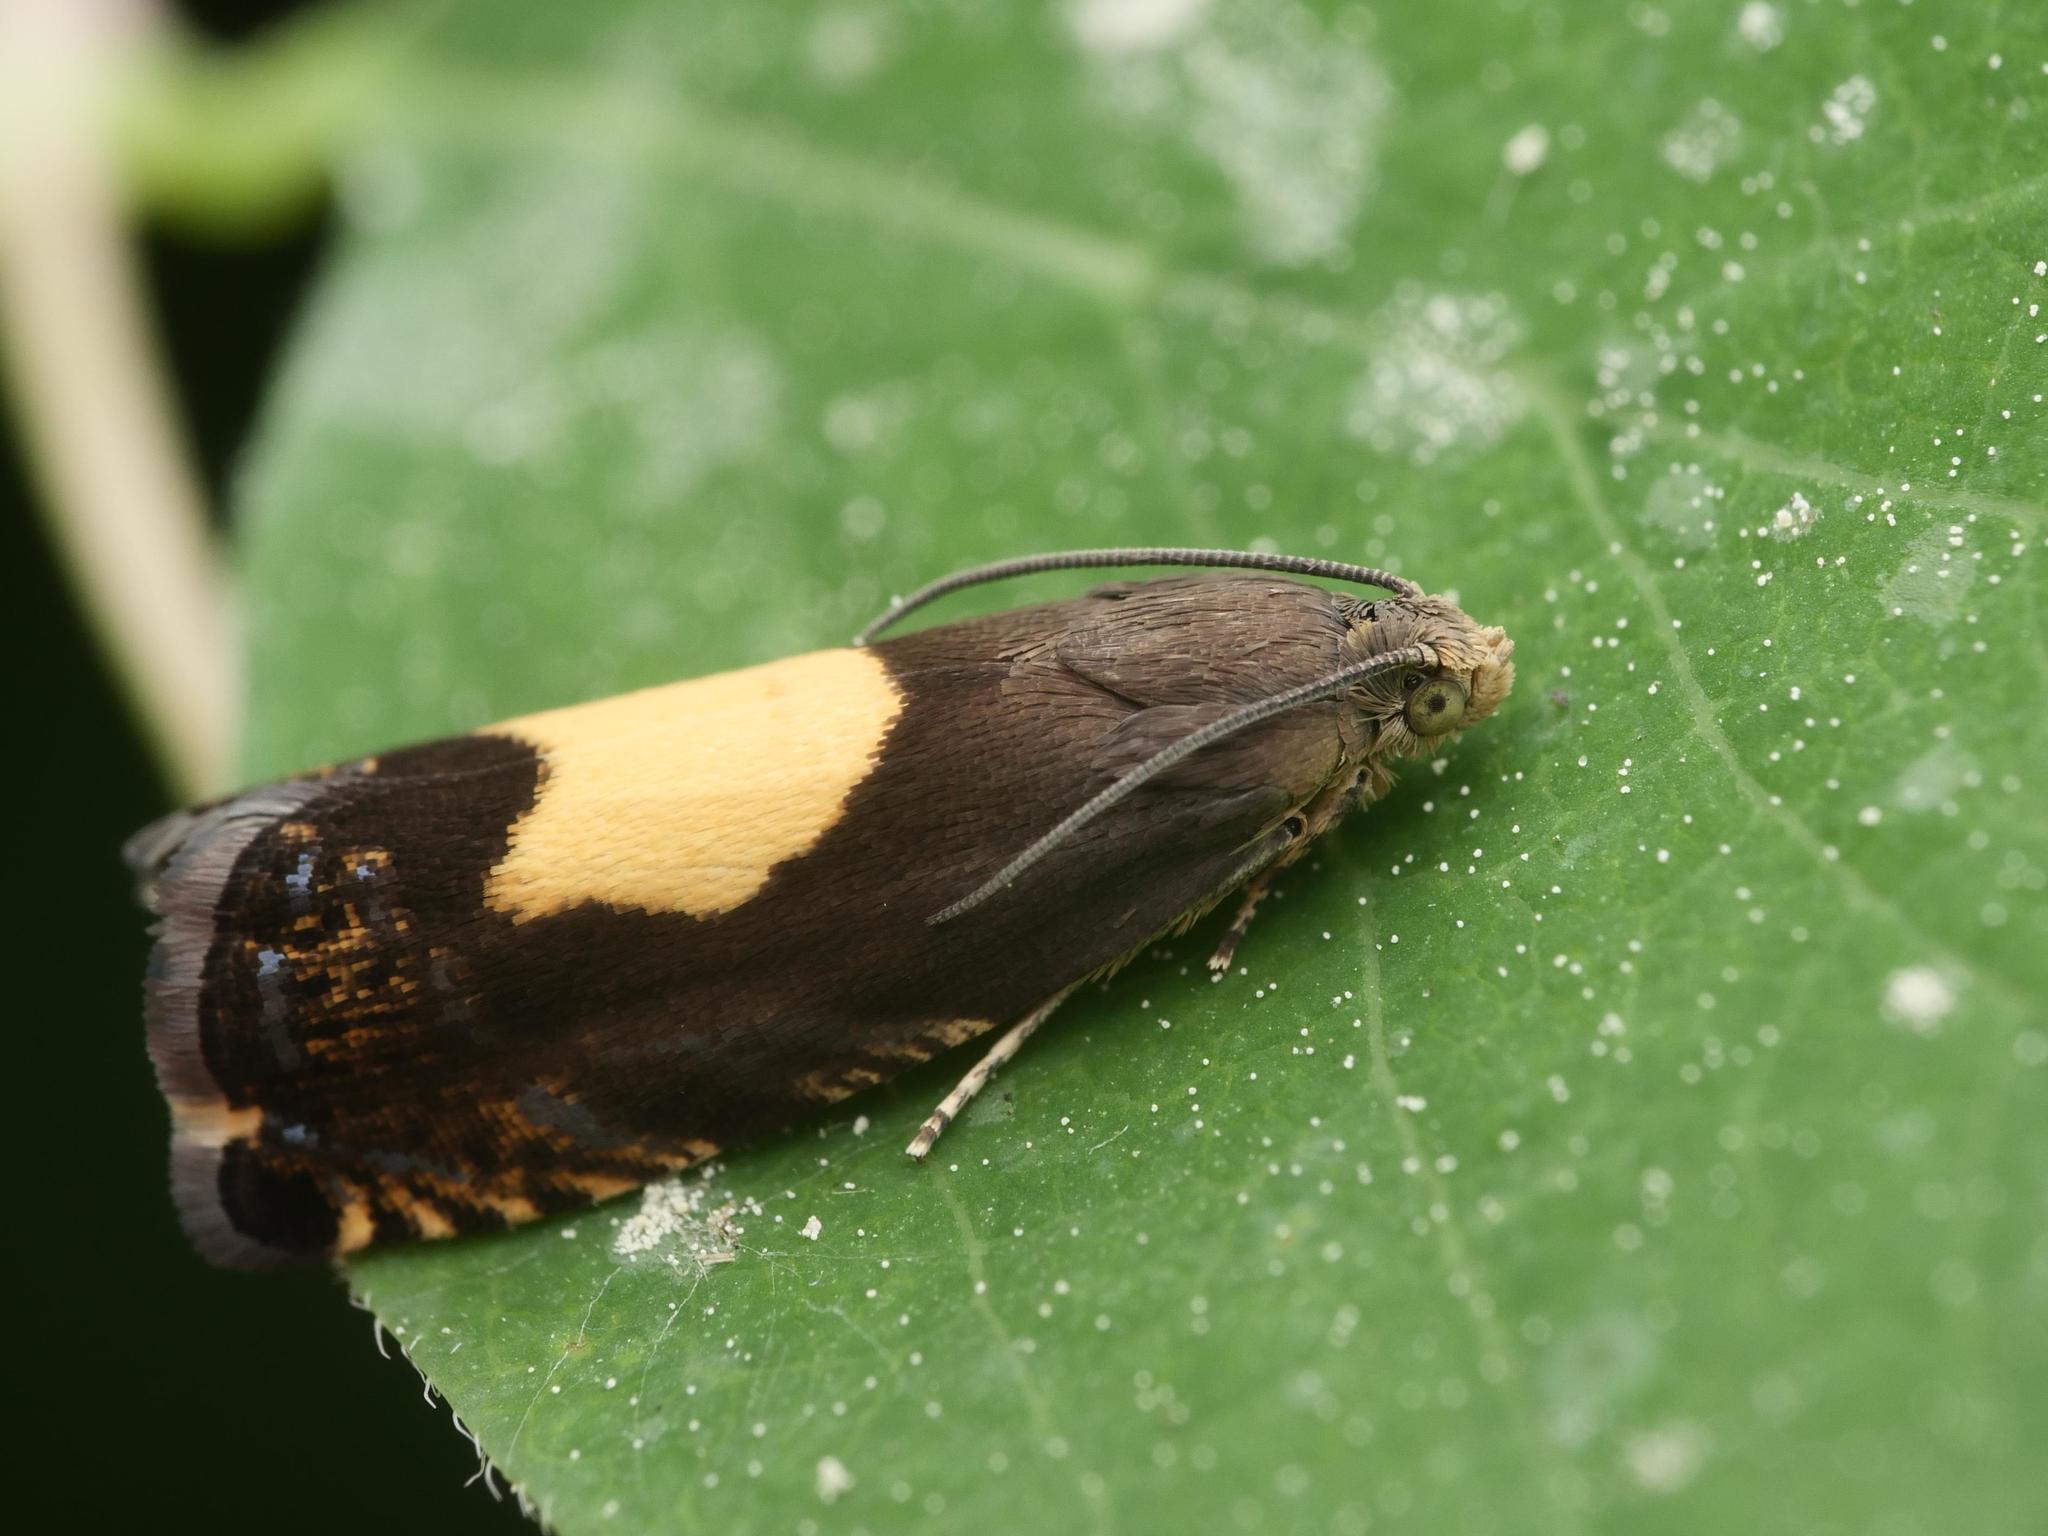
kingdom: Animalia
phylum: Arthropoda
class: Insecta
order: Lepidoptera
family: Tortricidae
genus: Pammene
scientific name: Pammene regiana
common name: Regal piercer
